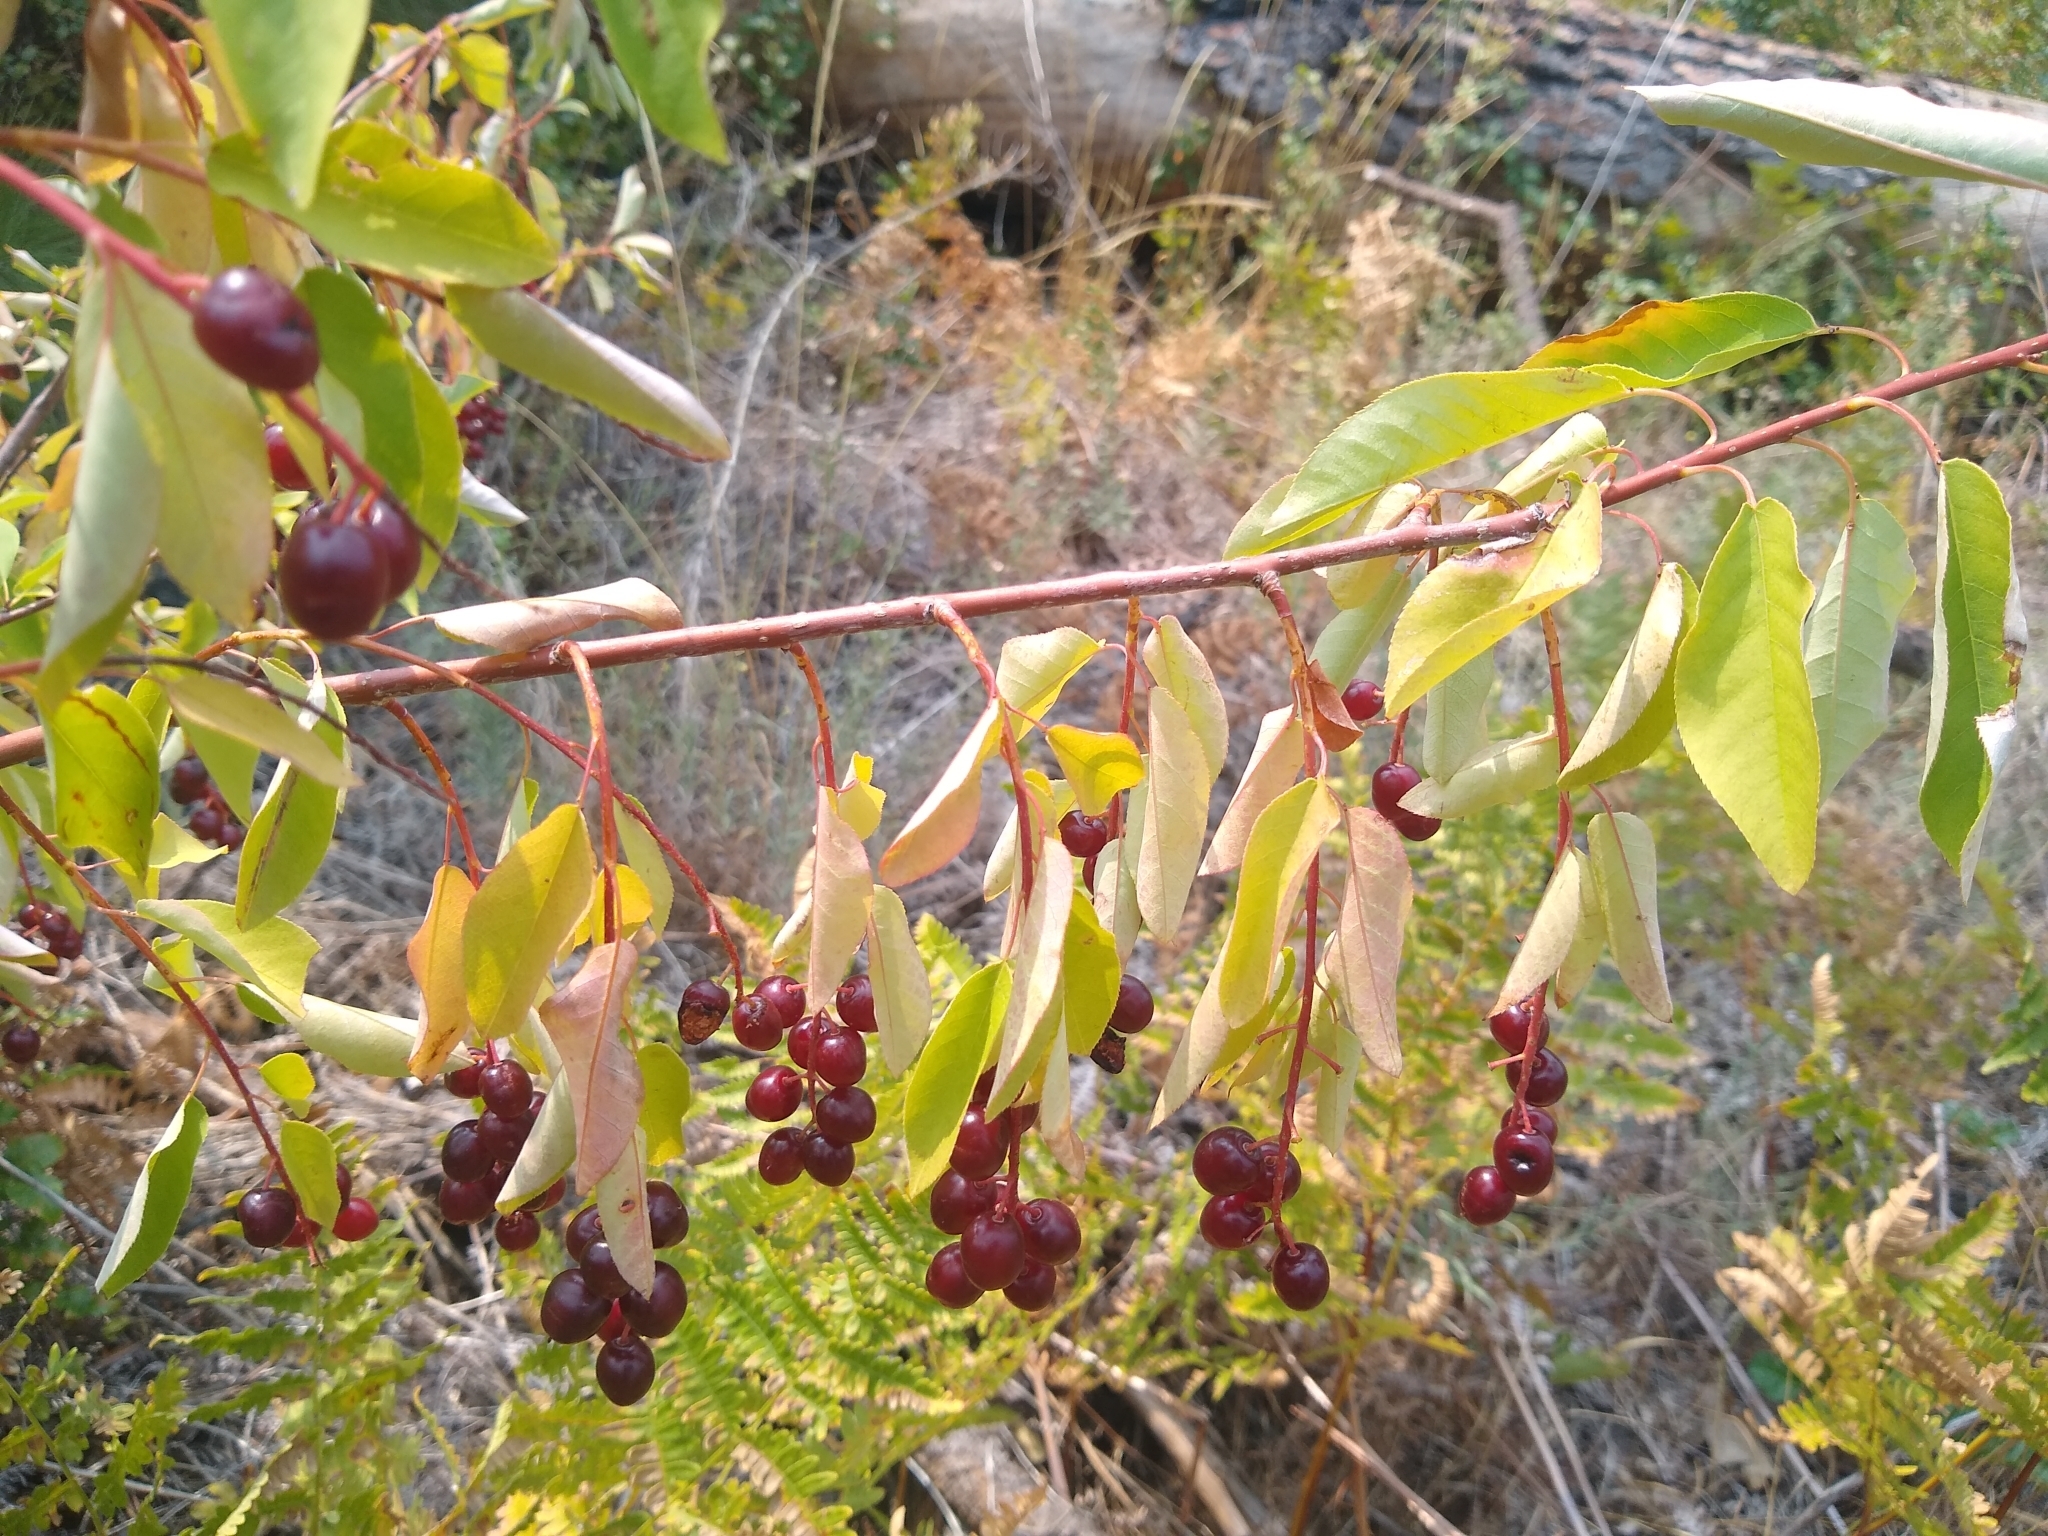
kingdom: Plantae
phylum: Tracheophyta
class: Magnoliopsida
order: Rosales
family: Rosaceae
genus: Prunus
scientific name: Prunus virginiana
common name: Chokecherry
